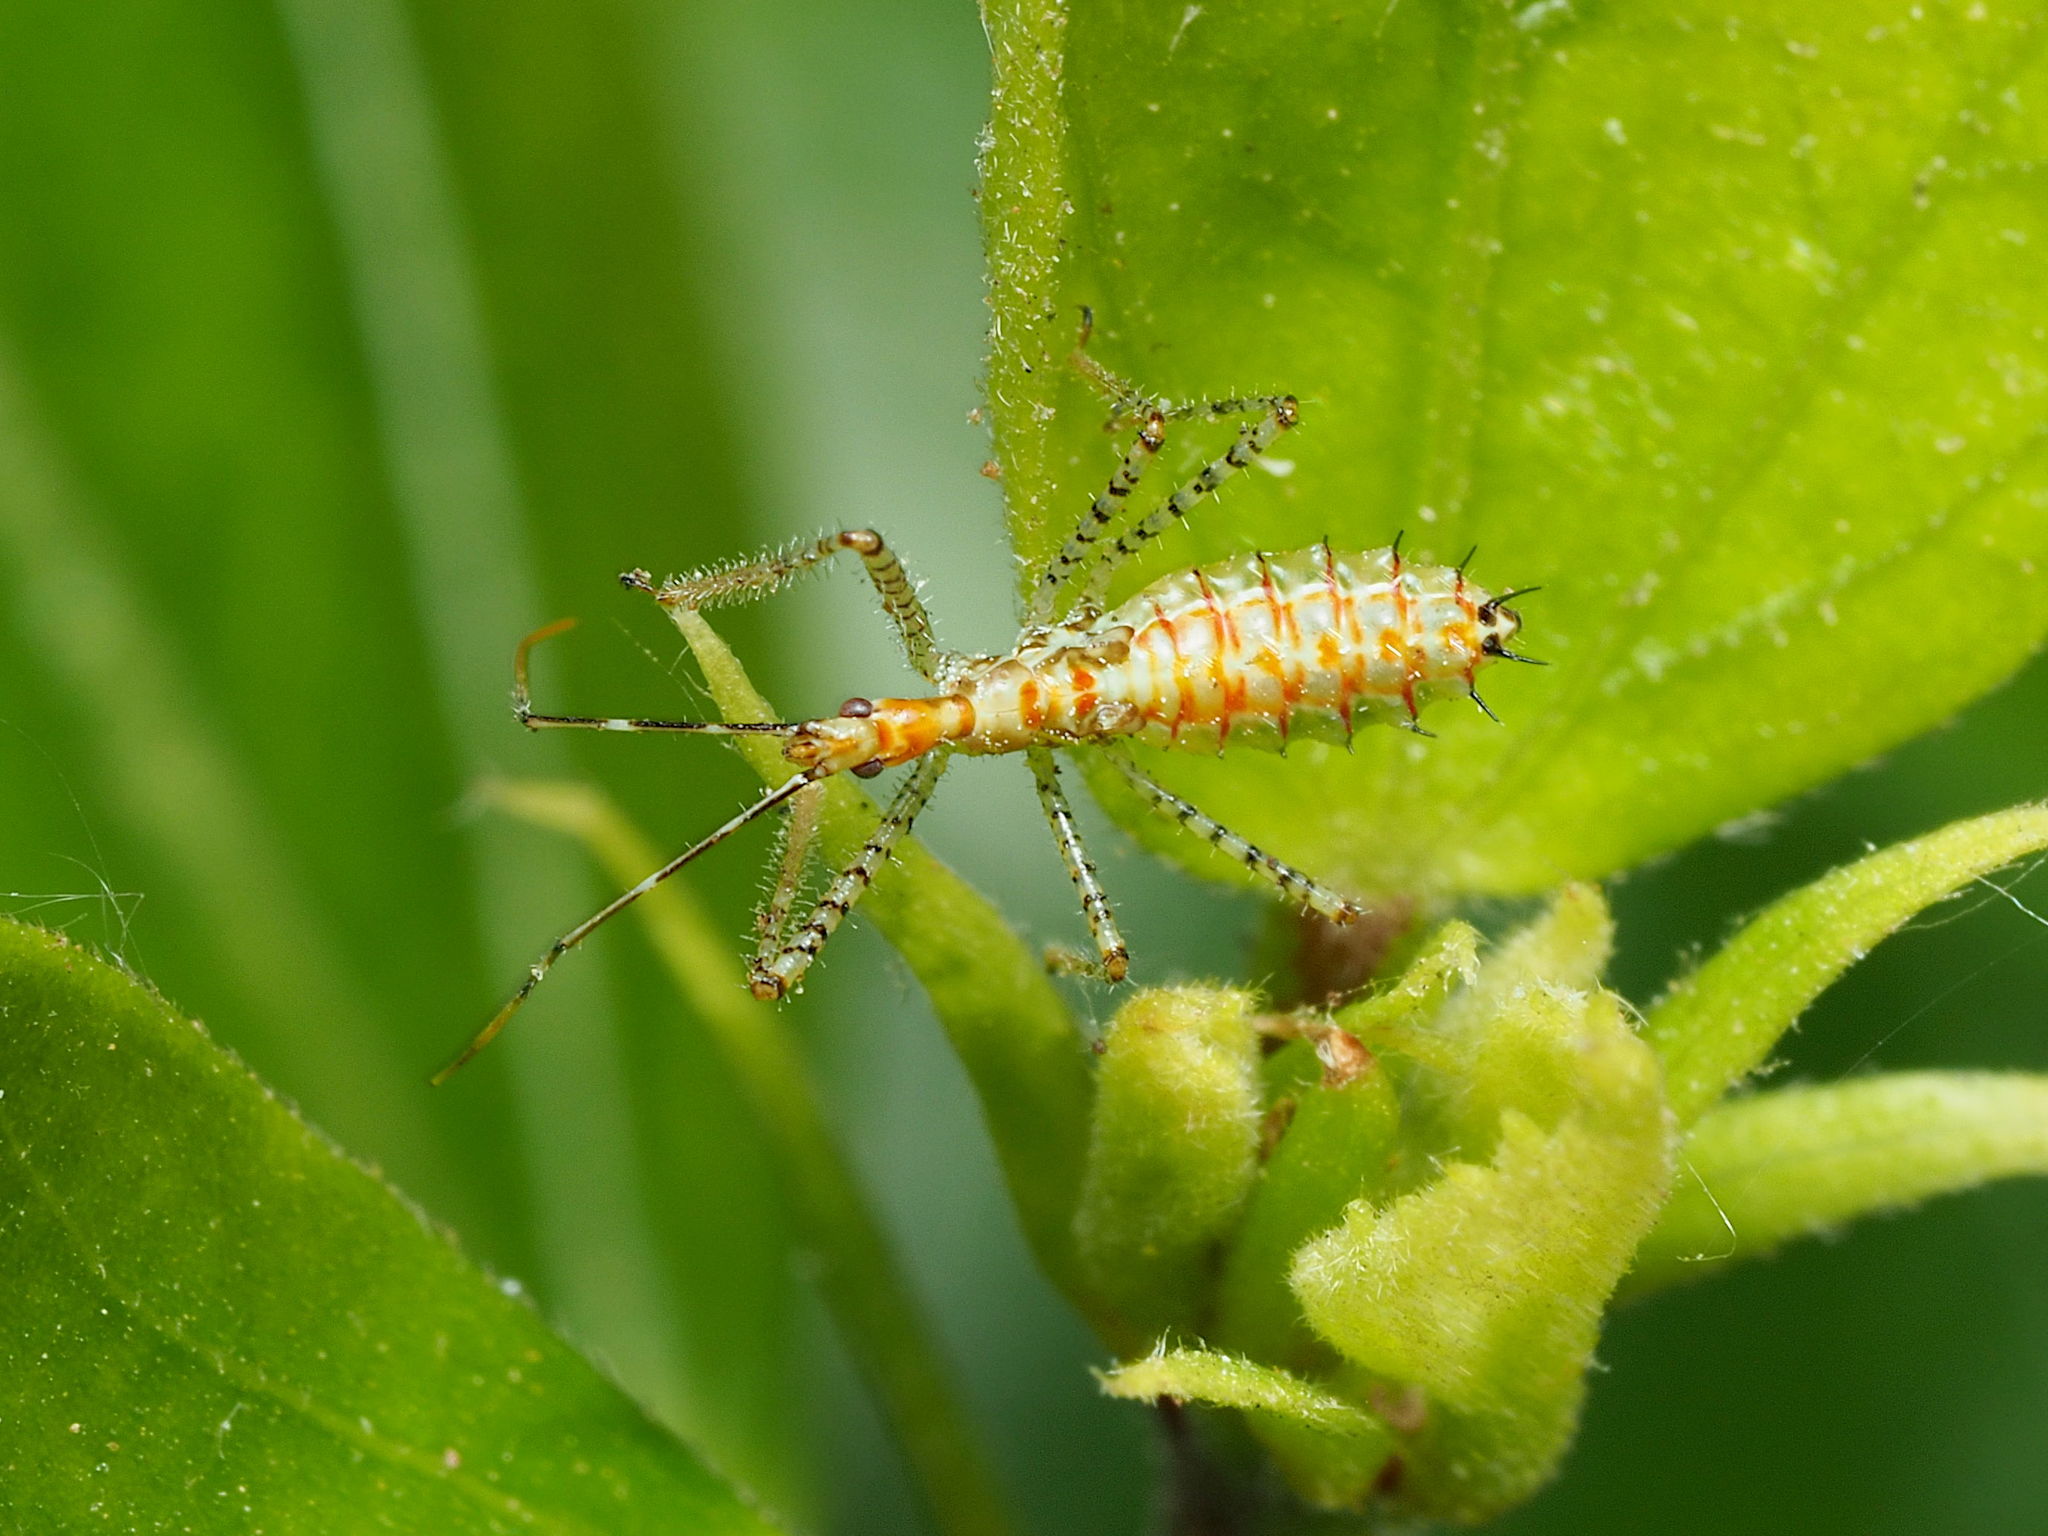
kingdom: Animalia
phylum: Arthropoda
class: Insecta
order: Hemiptera
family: Reduviidae
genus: Zelus
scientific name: Zelus renardii
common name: Assassin bug
